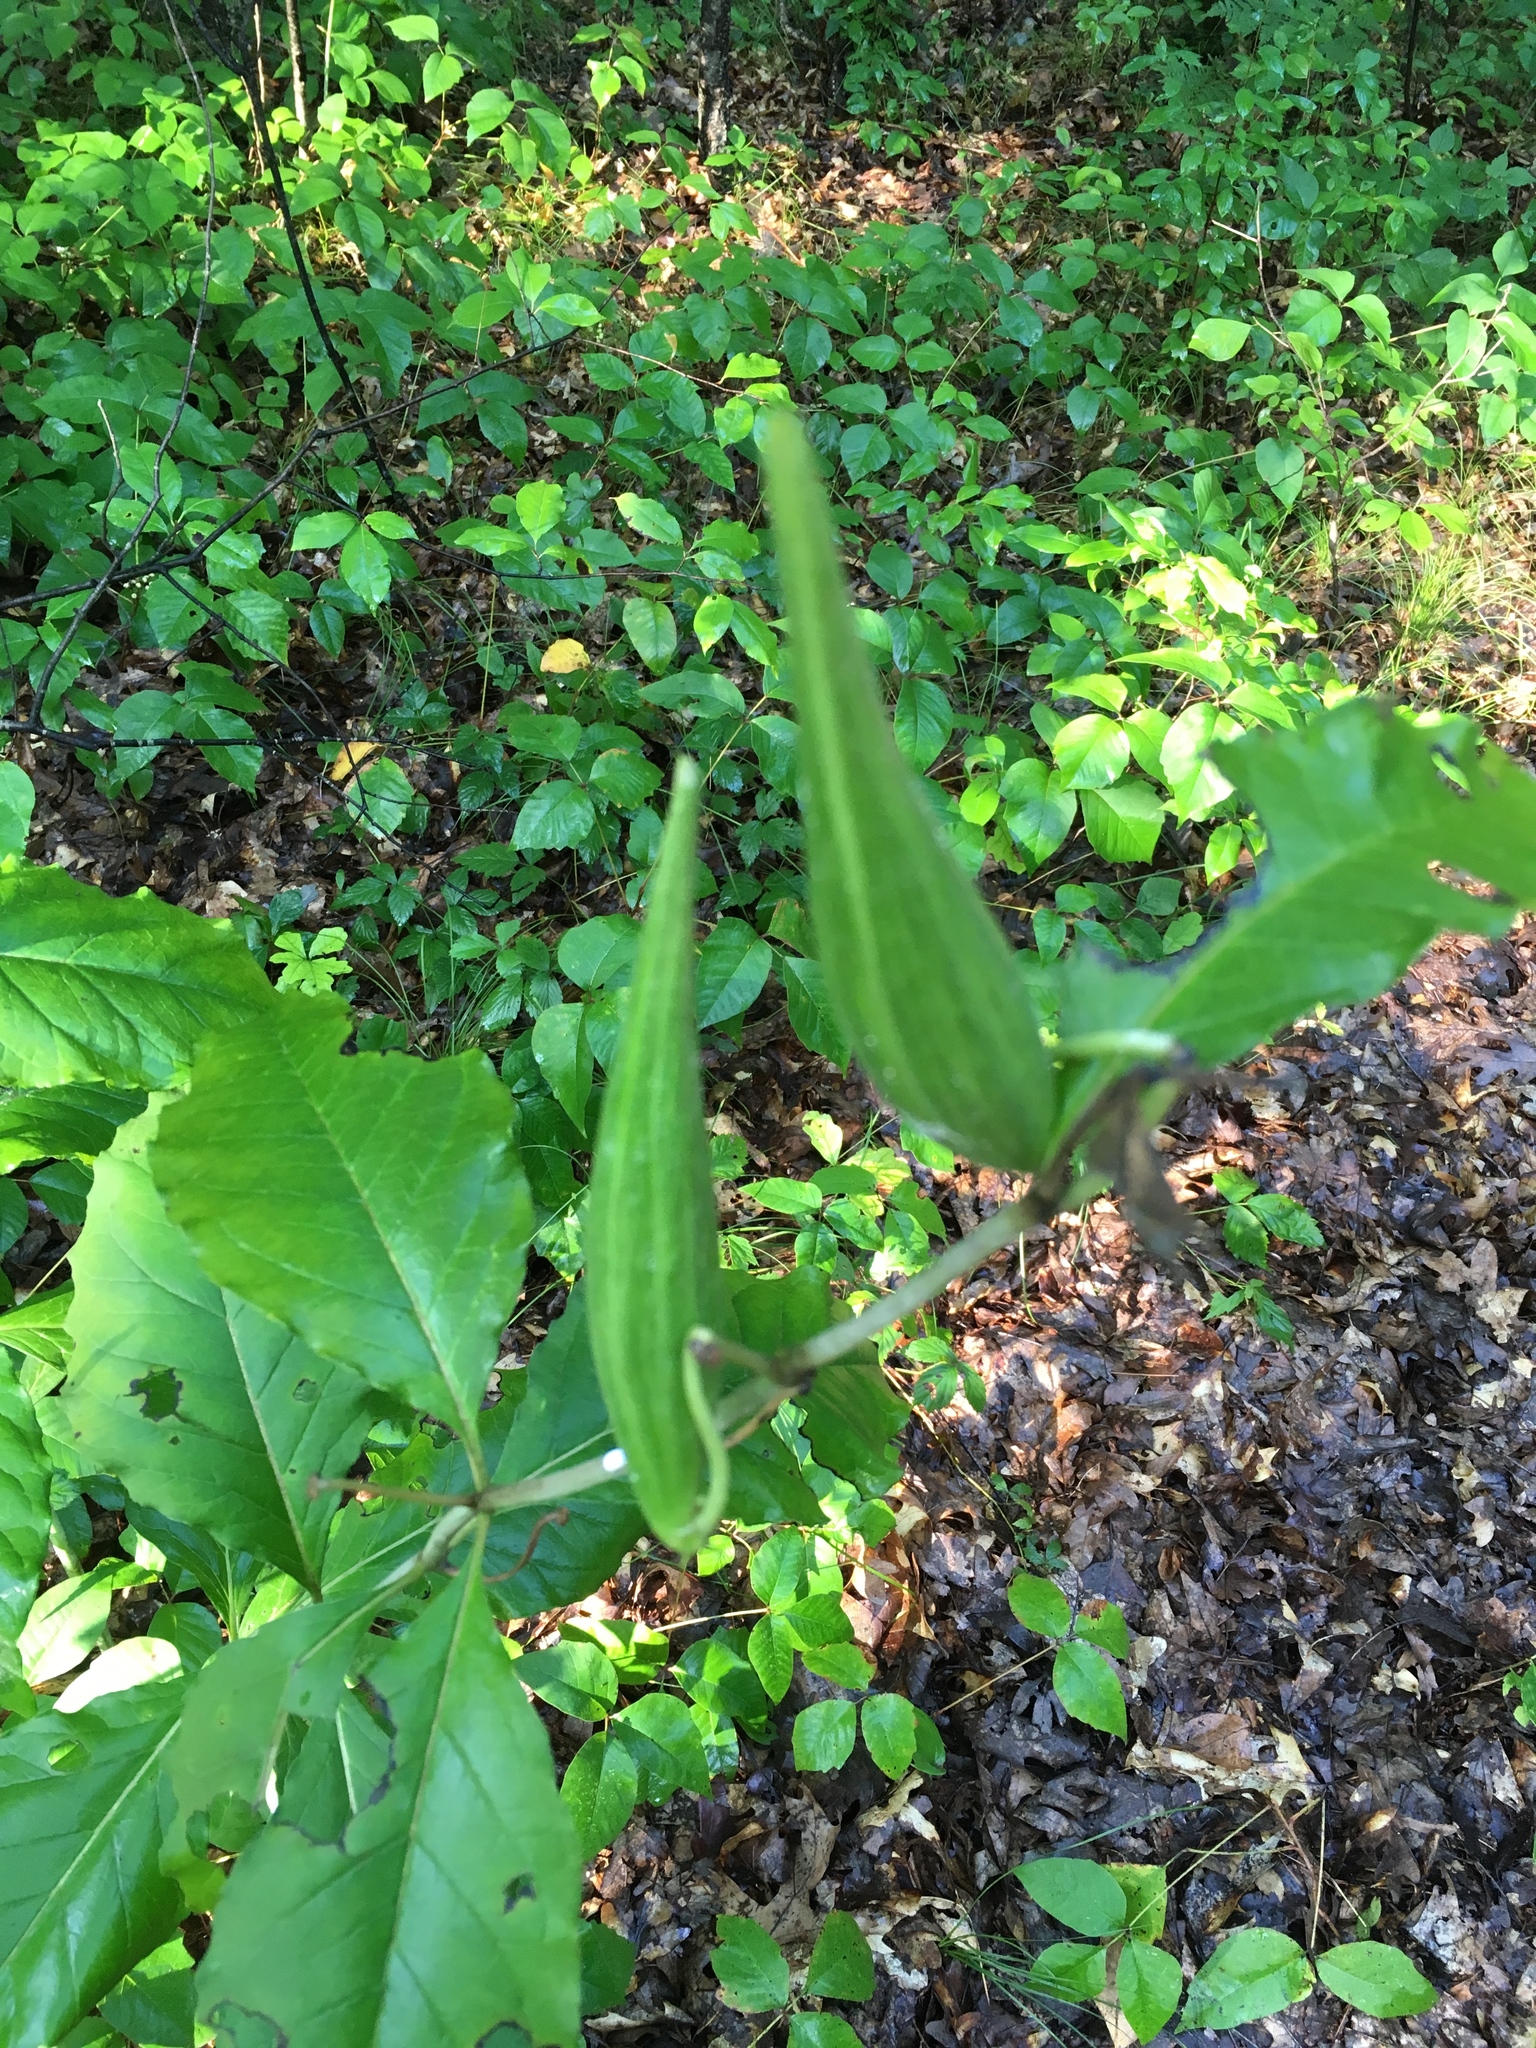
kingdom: Plantae
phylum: Tracheophyta
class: Magnoliopsida
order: Gentianales
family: Apocynaceae
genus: Asclepias
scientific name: Asclepias exaltata
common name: Poke milkweed
